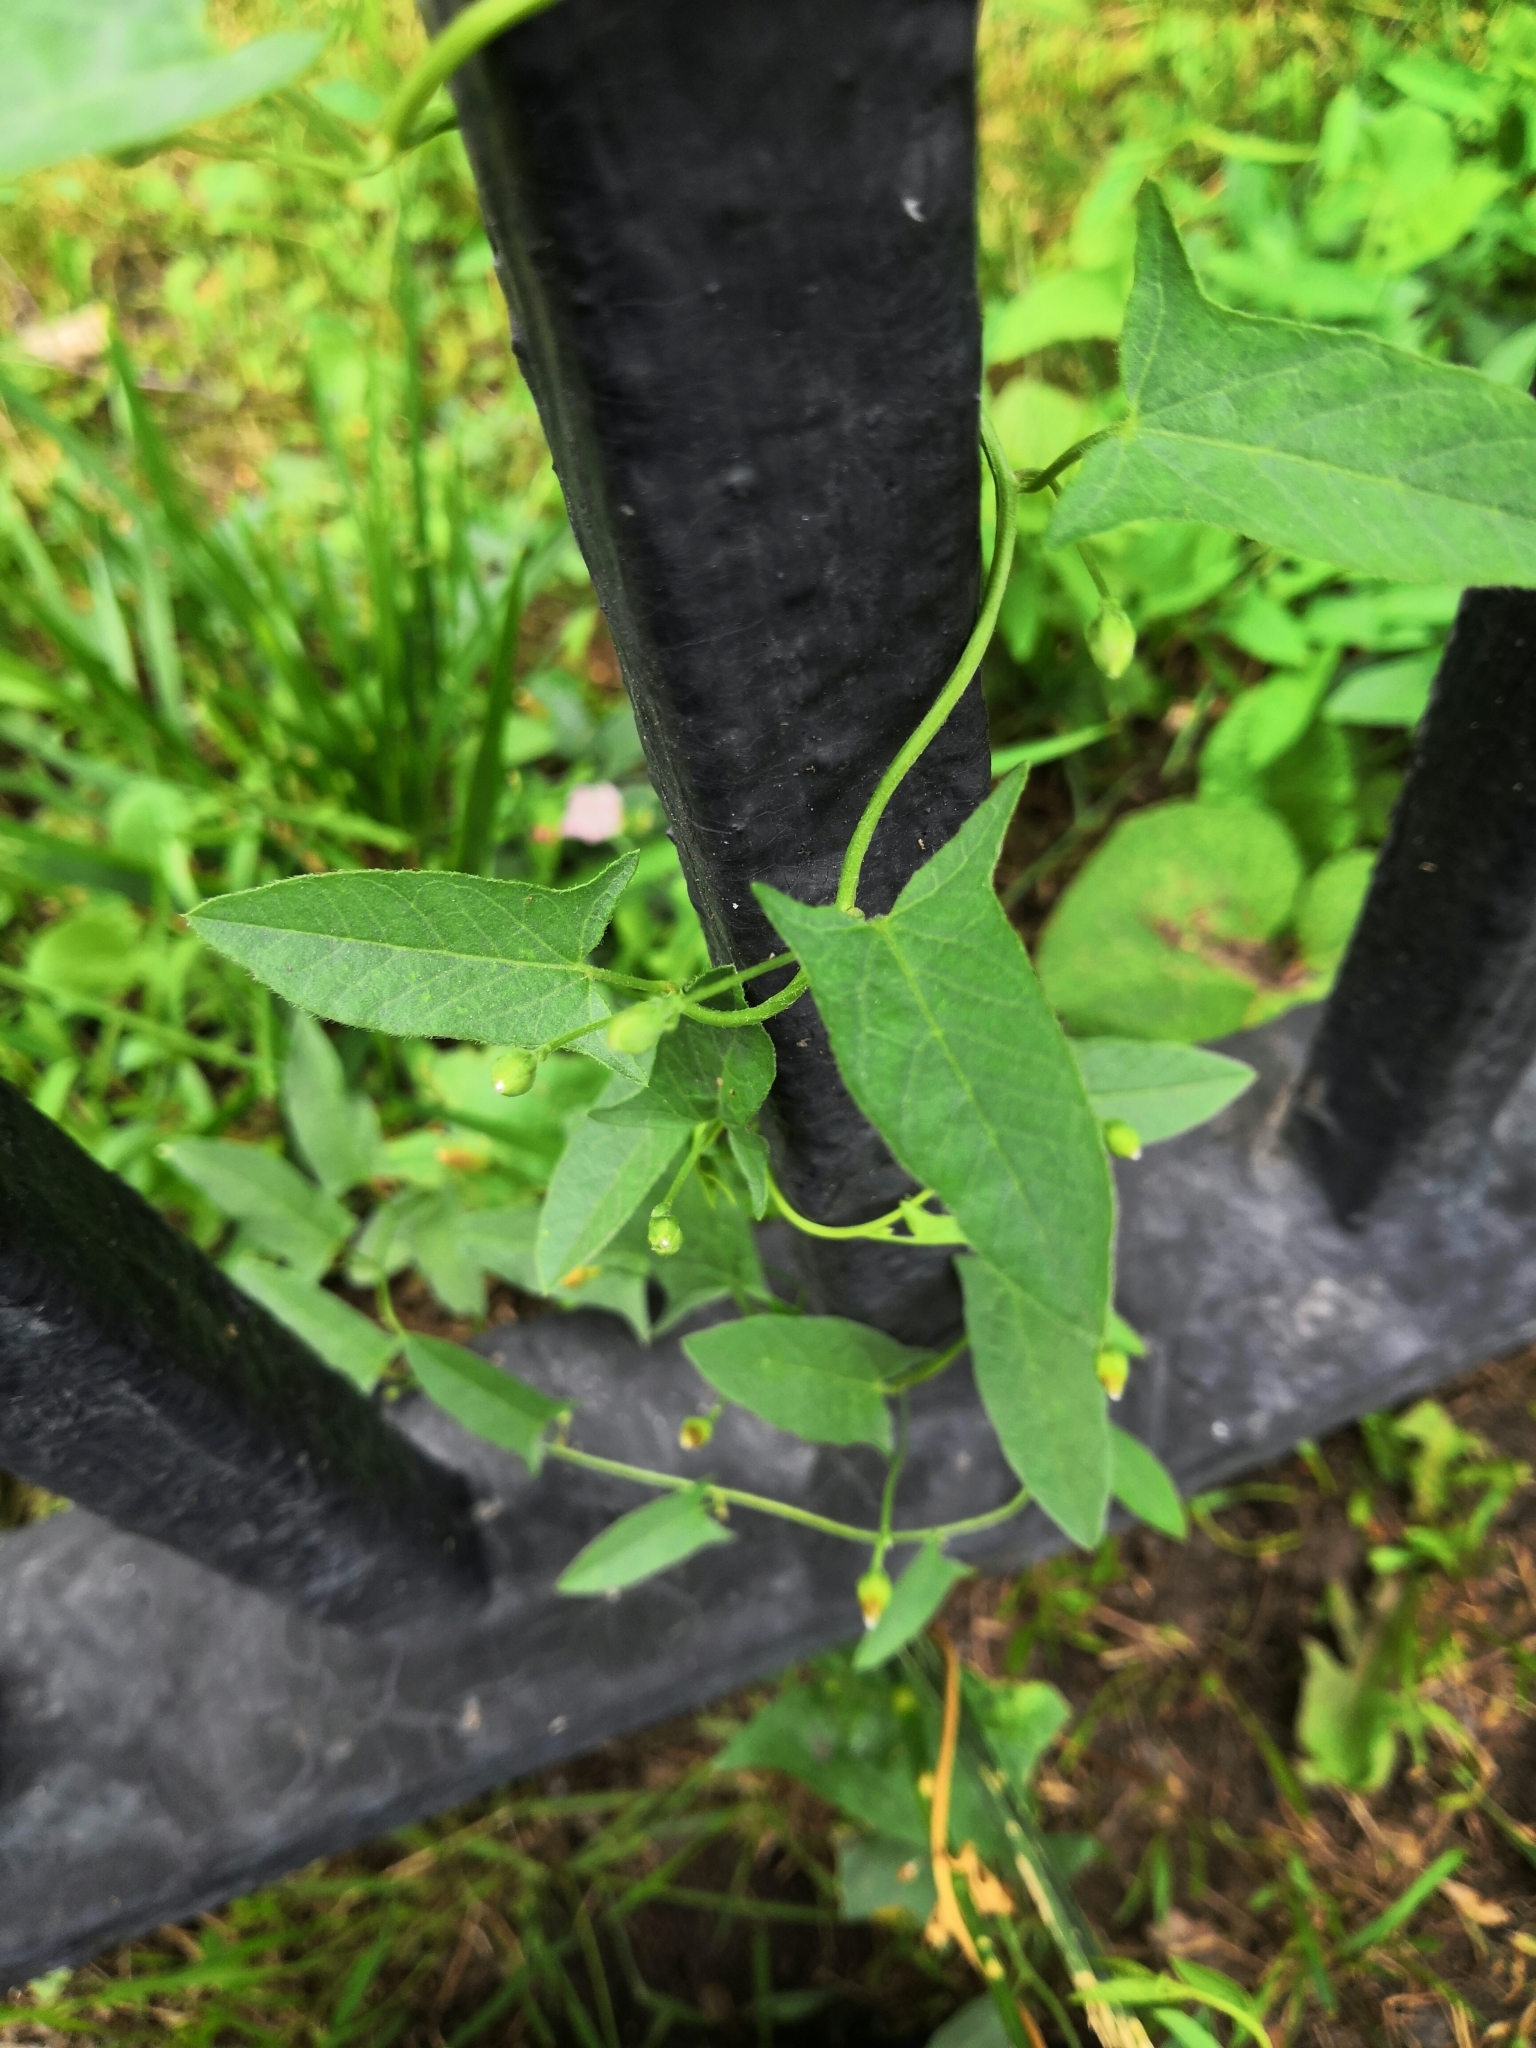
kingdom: Plantae
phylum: Tracheophyta
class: Magnoliopsida
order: Solanales
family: Convolvulaceae
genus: Convolvulus
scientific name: Convolvulus arvensis
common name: Field bindweed
